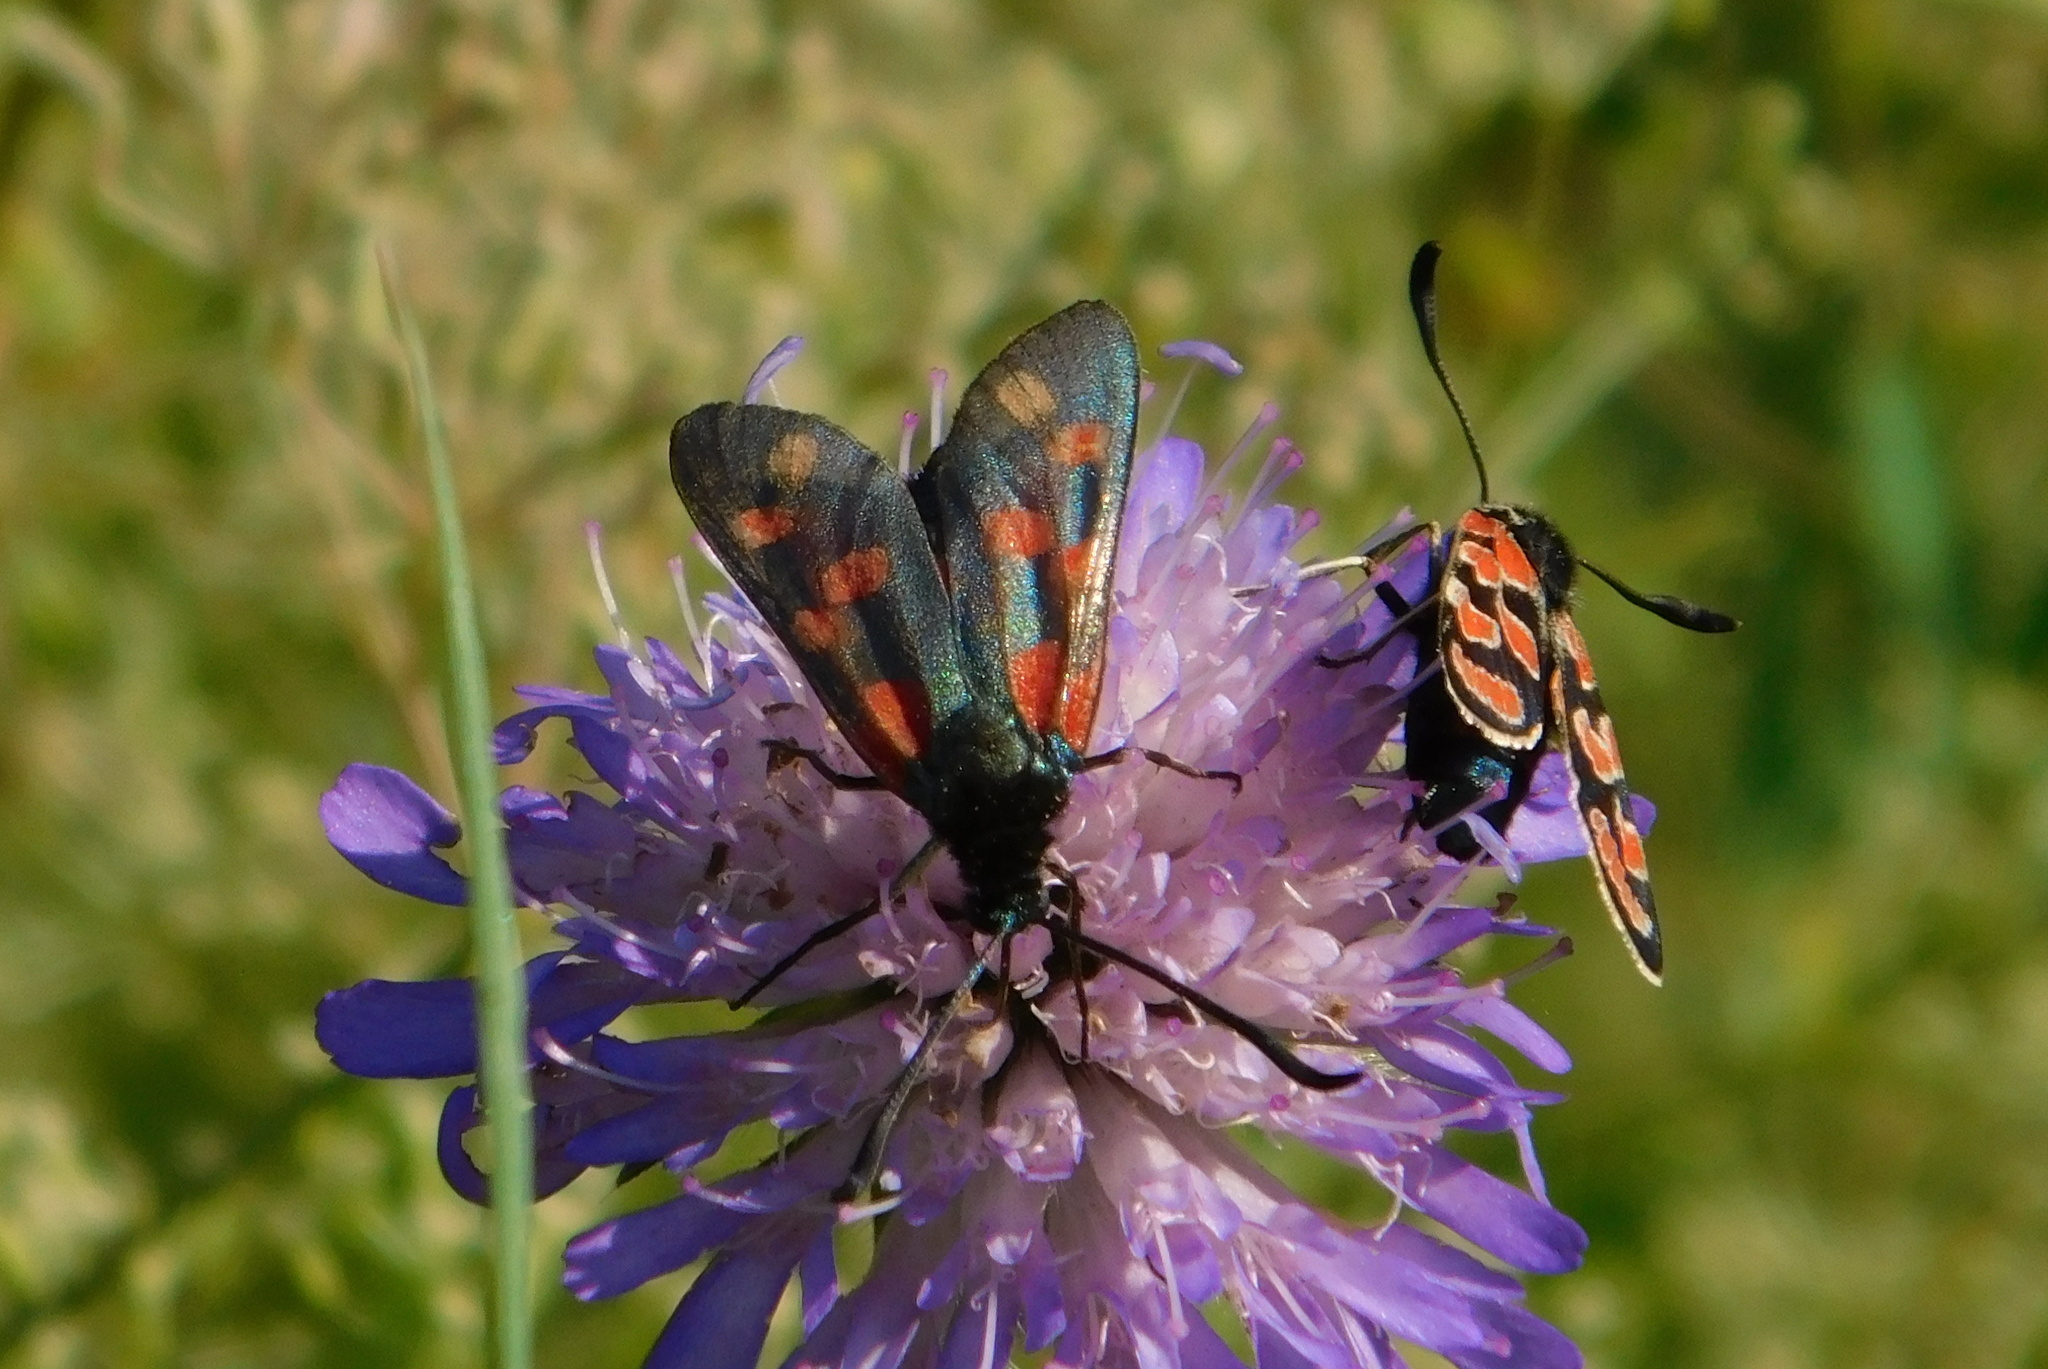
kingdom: Animalia
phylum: Arthropoda
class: Insecta
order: Lepidoptera
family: Zygaenidae
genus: Zygaena
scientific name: Zygaena filipendulae
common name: Six-spot burnet
